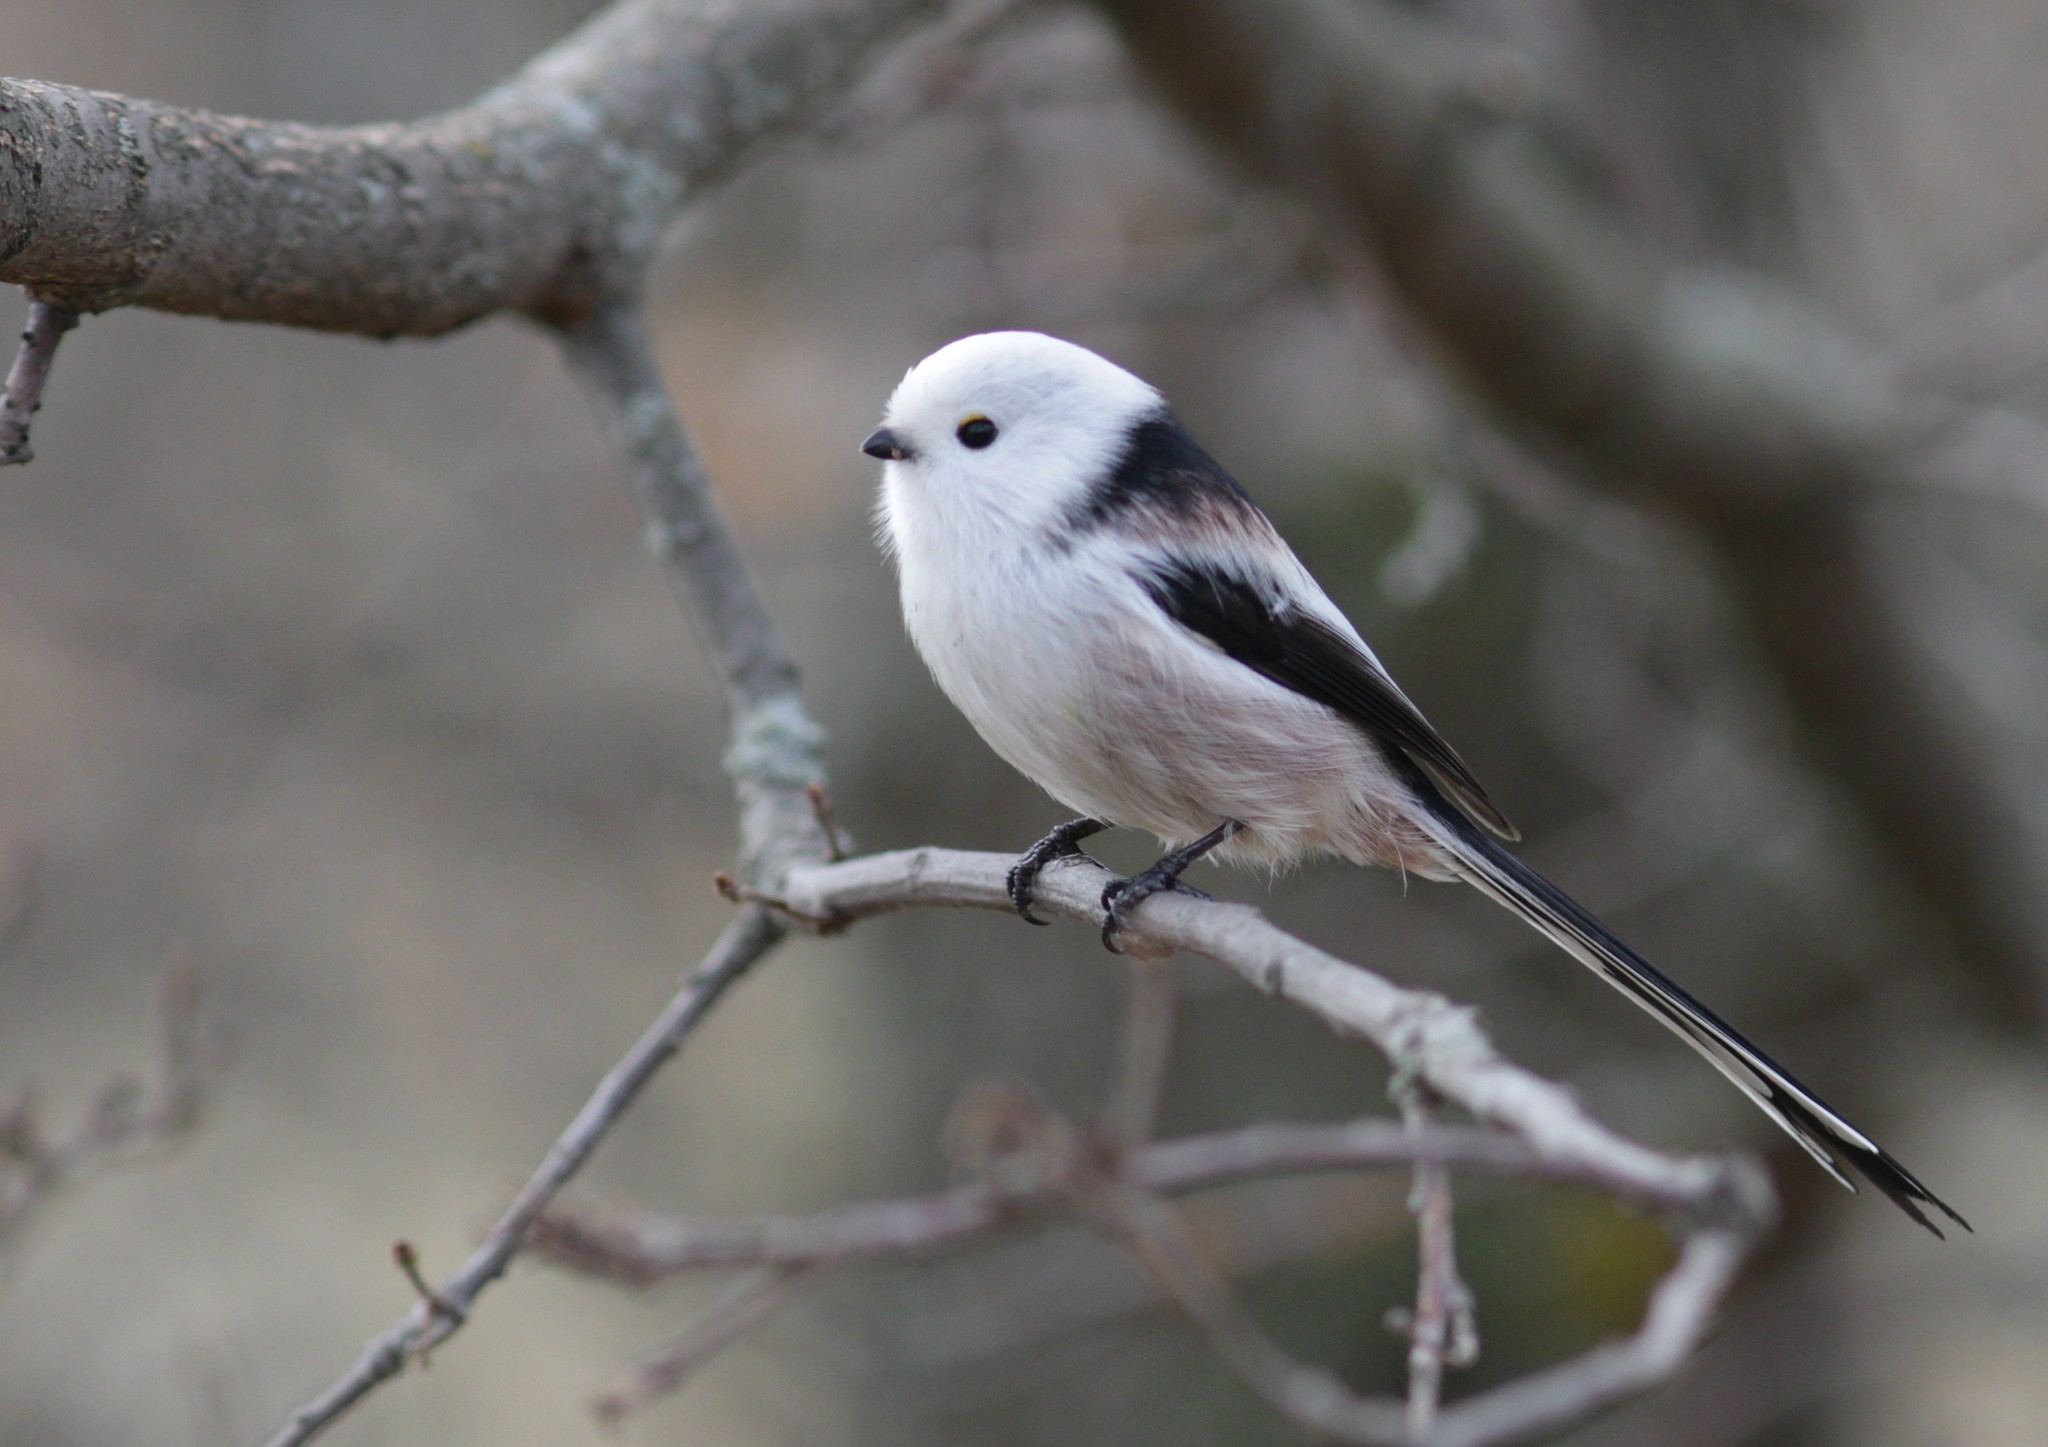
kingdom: Animalia
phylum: Chordata
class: Aves
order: Passeriformes
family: Aegithalidae
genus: Aegithalos
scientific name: Aegithalos caudatus
